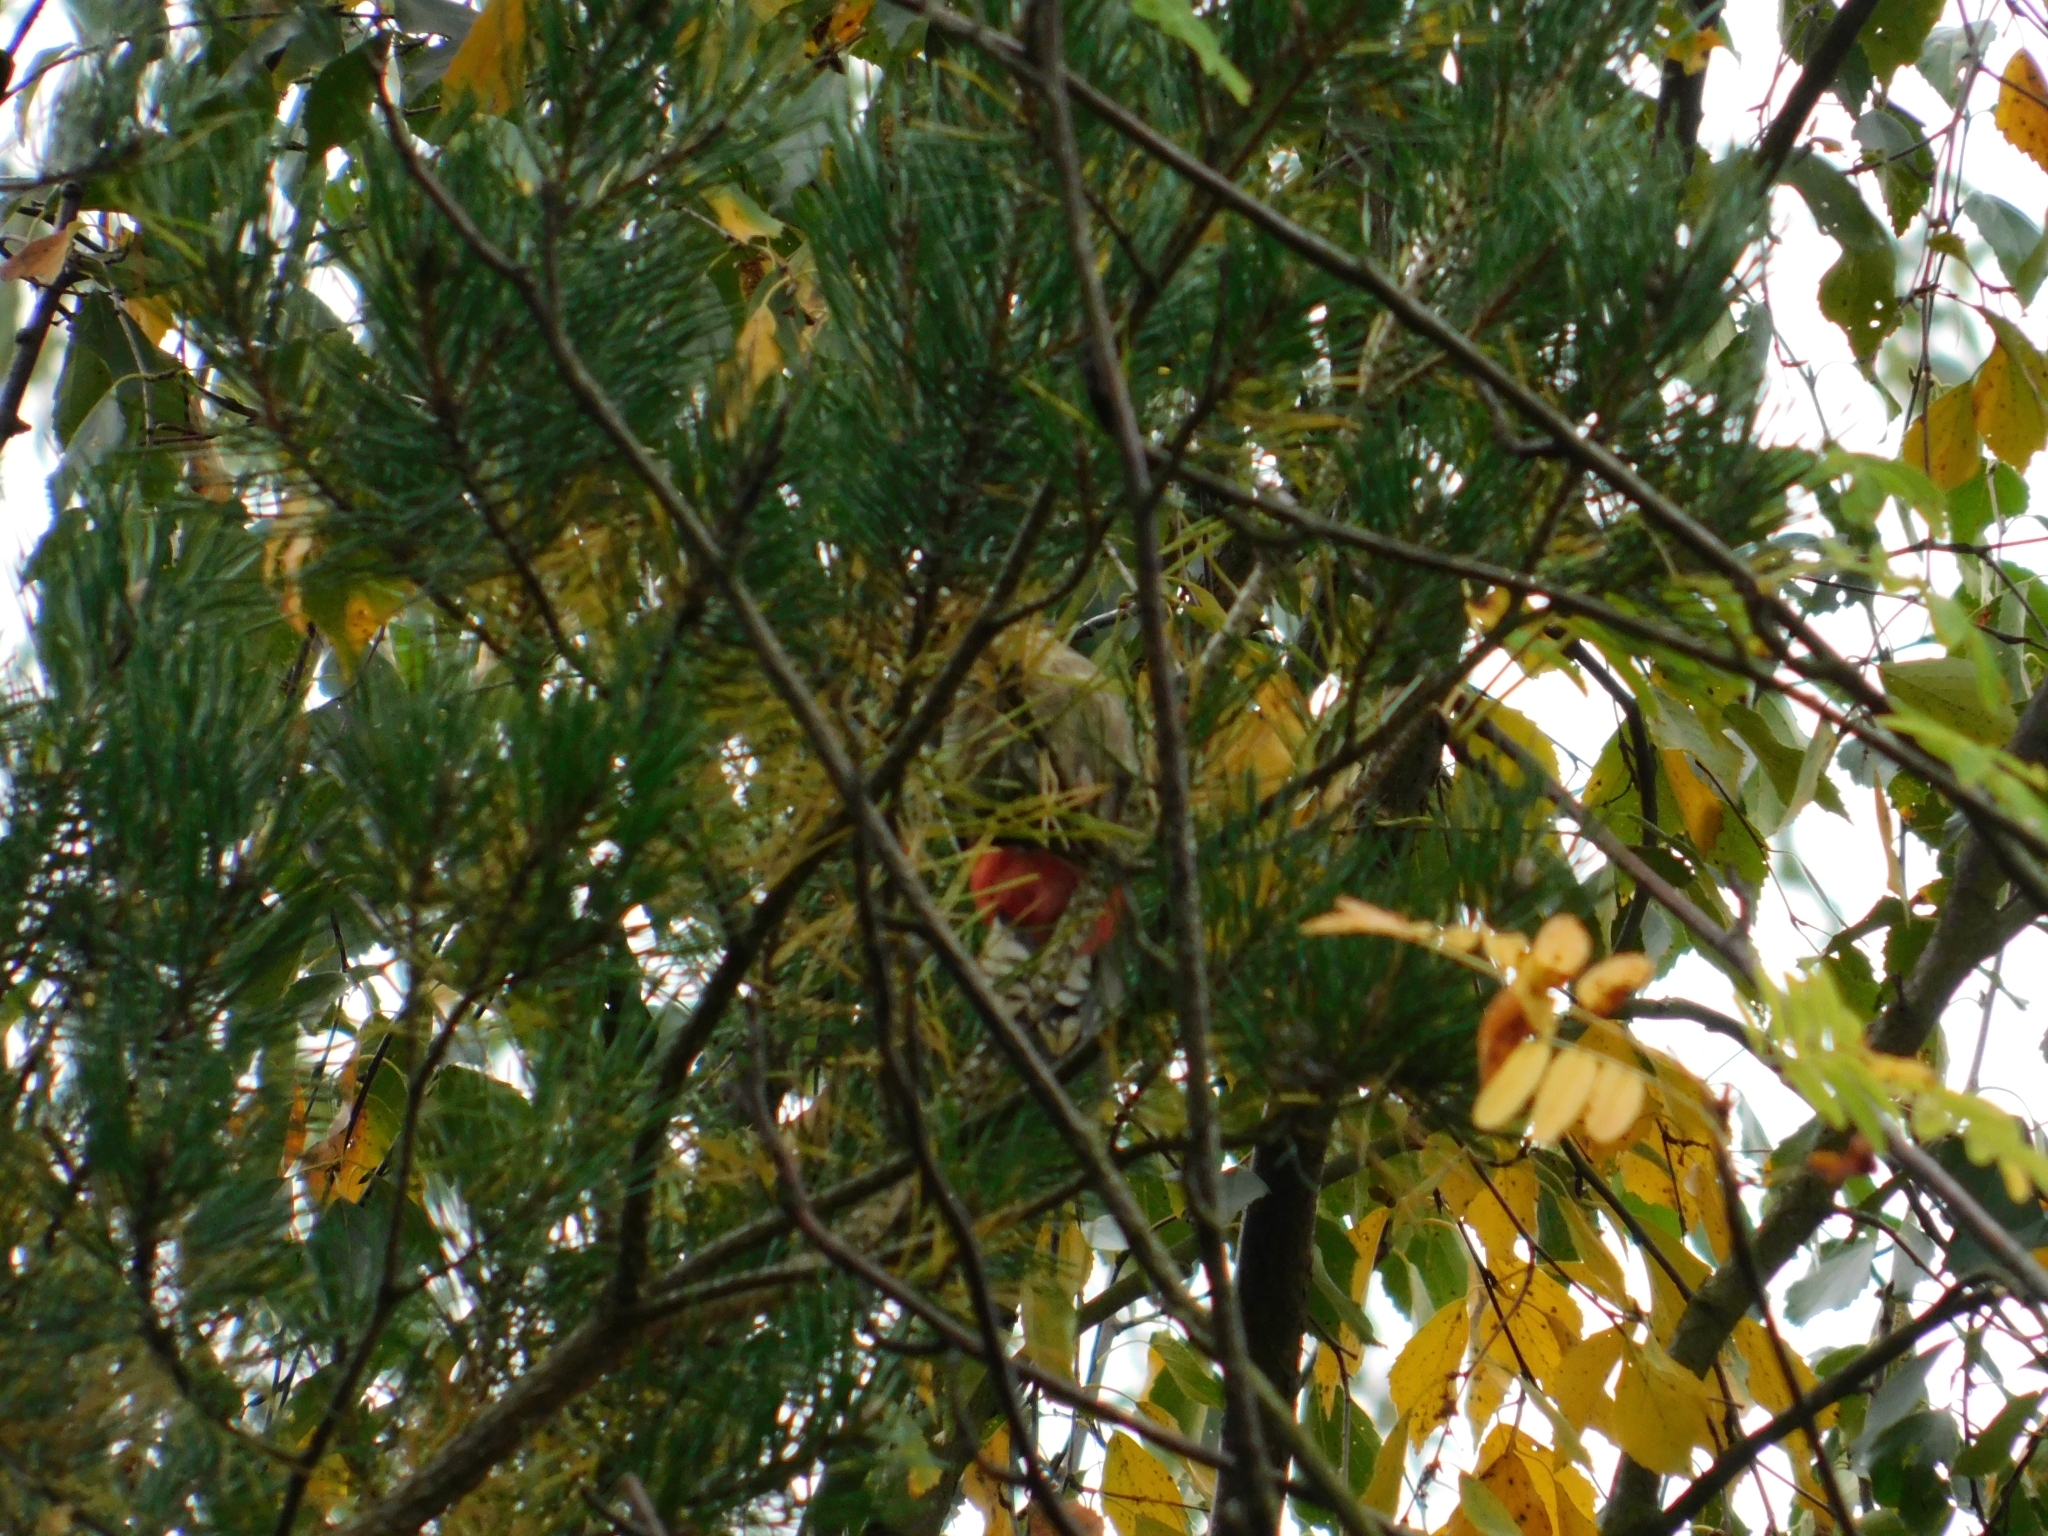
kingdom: Animalia
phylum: Chordata
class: Aves
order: Piciformes
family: Picidae
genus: Dendrocopos
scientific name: Dendrocopos major
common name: Great spotted woodpecker
